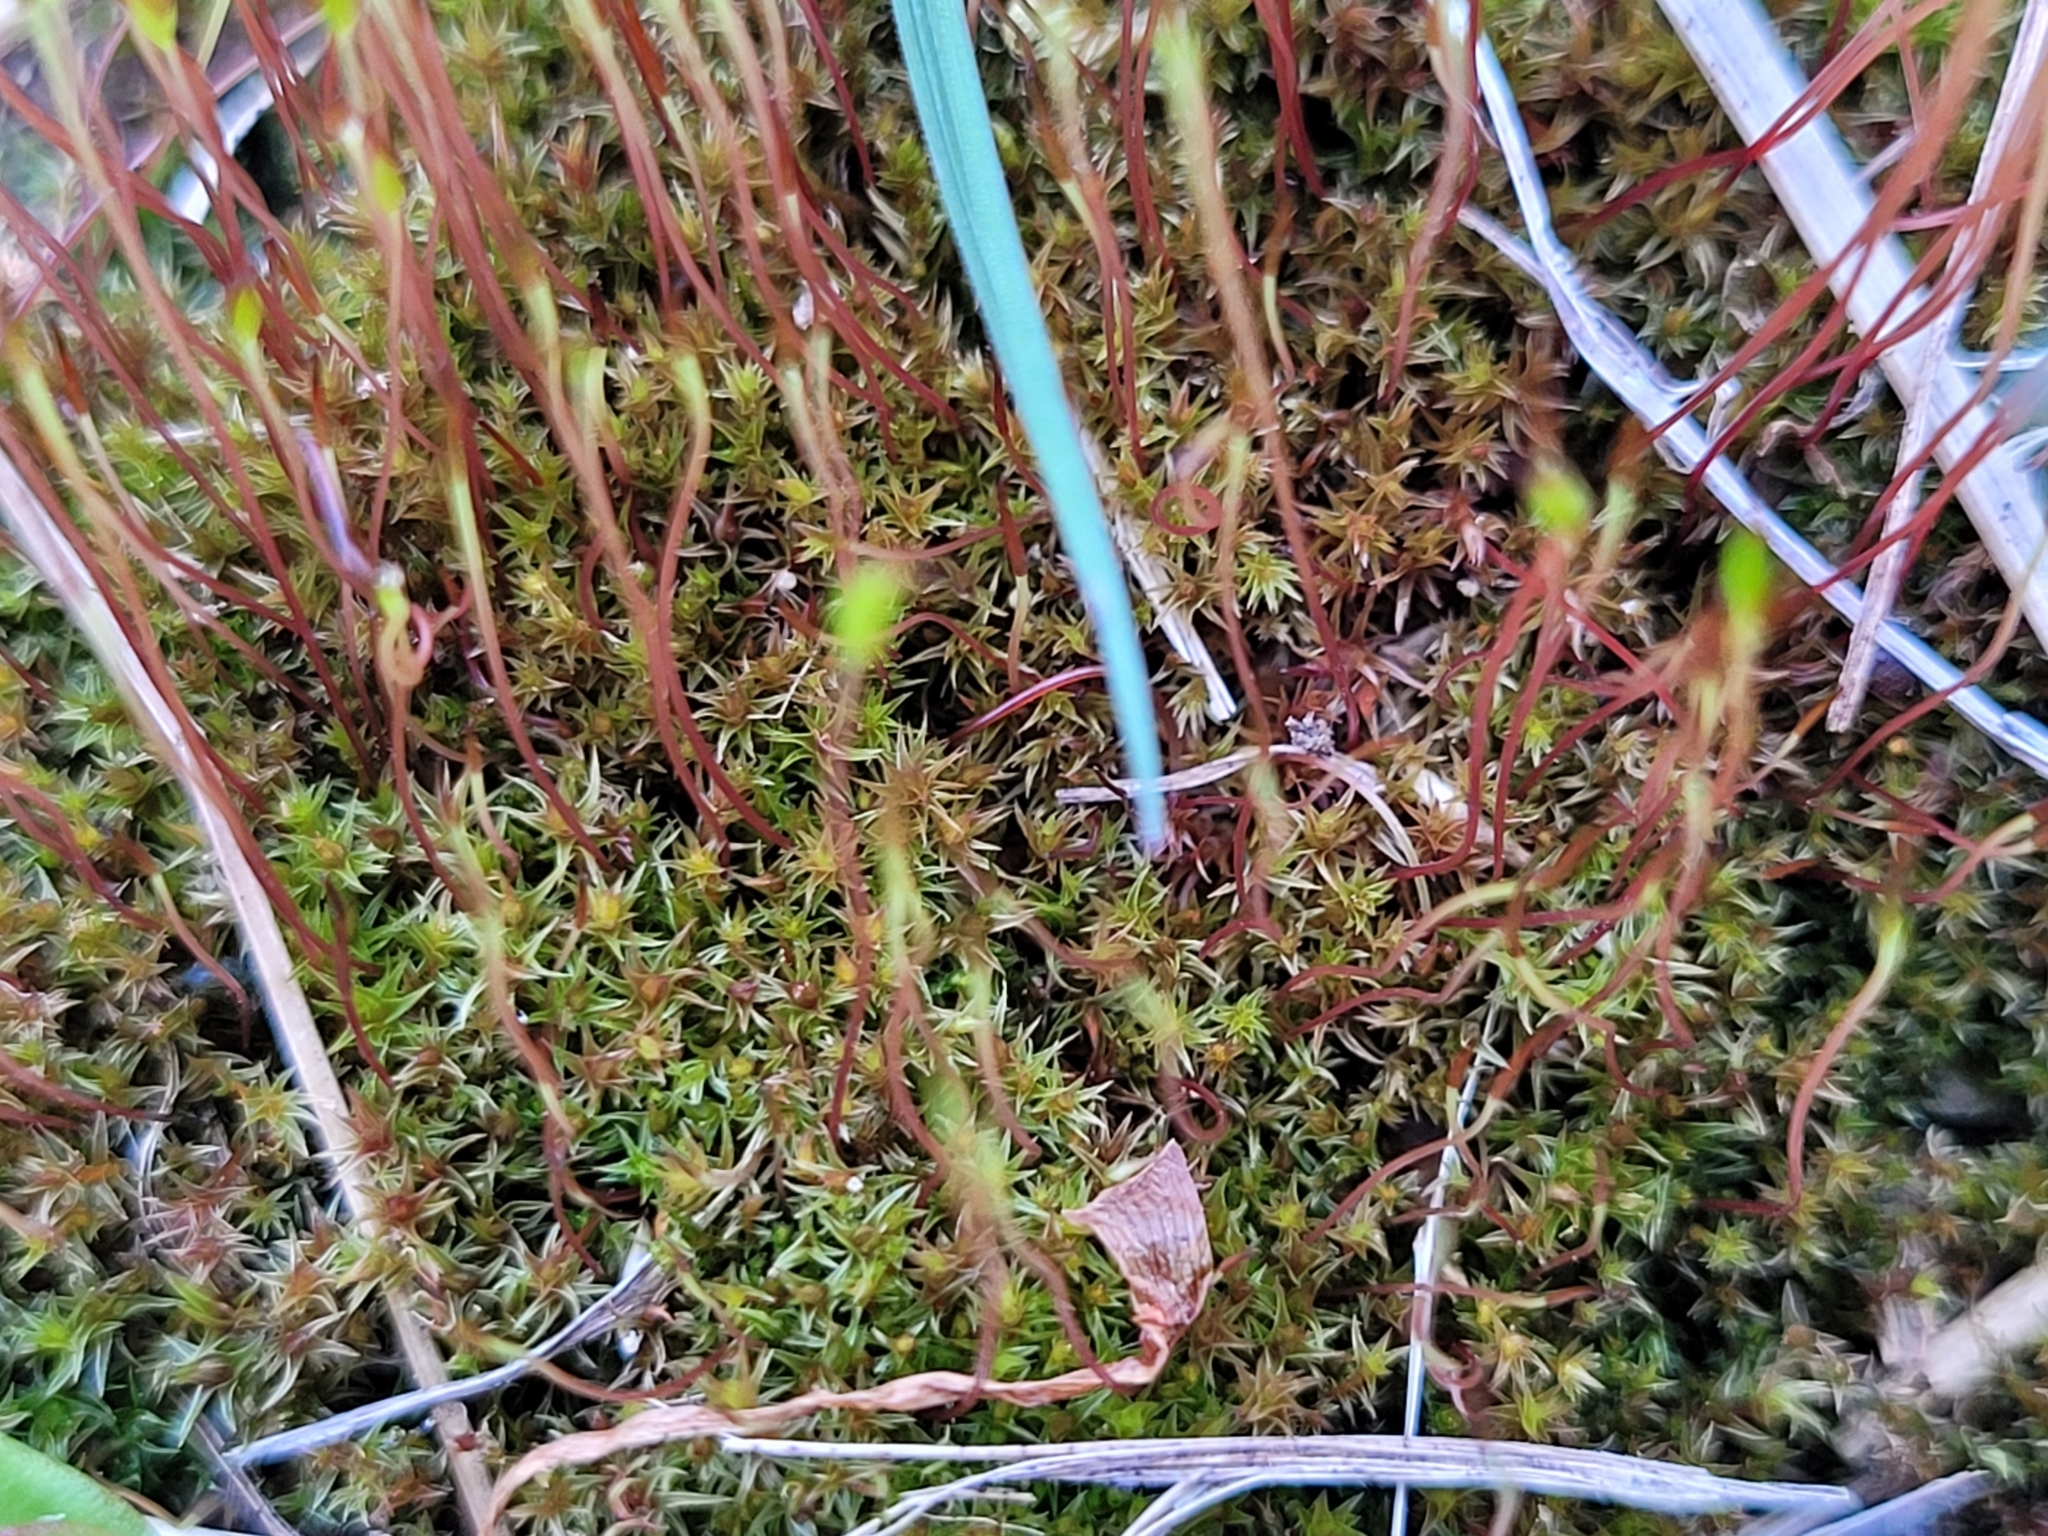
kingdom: Plantae
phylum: Bryophyta
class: Bryopsida
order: Dicranales
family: Ditrichaceae
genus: Ceratodon
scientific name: Ceratodon purpureus
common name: Redshank
